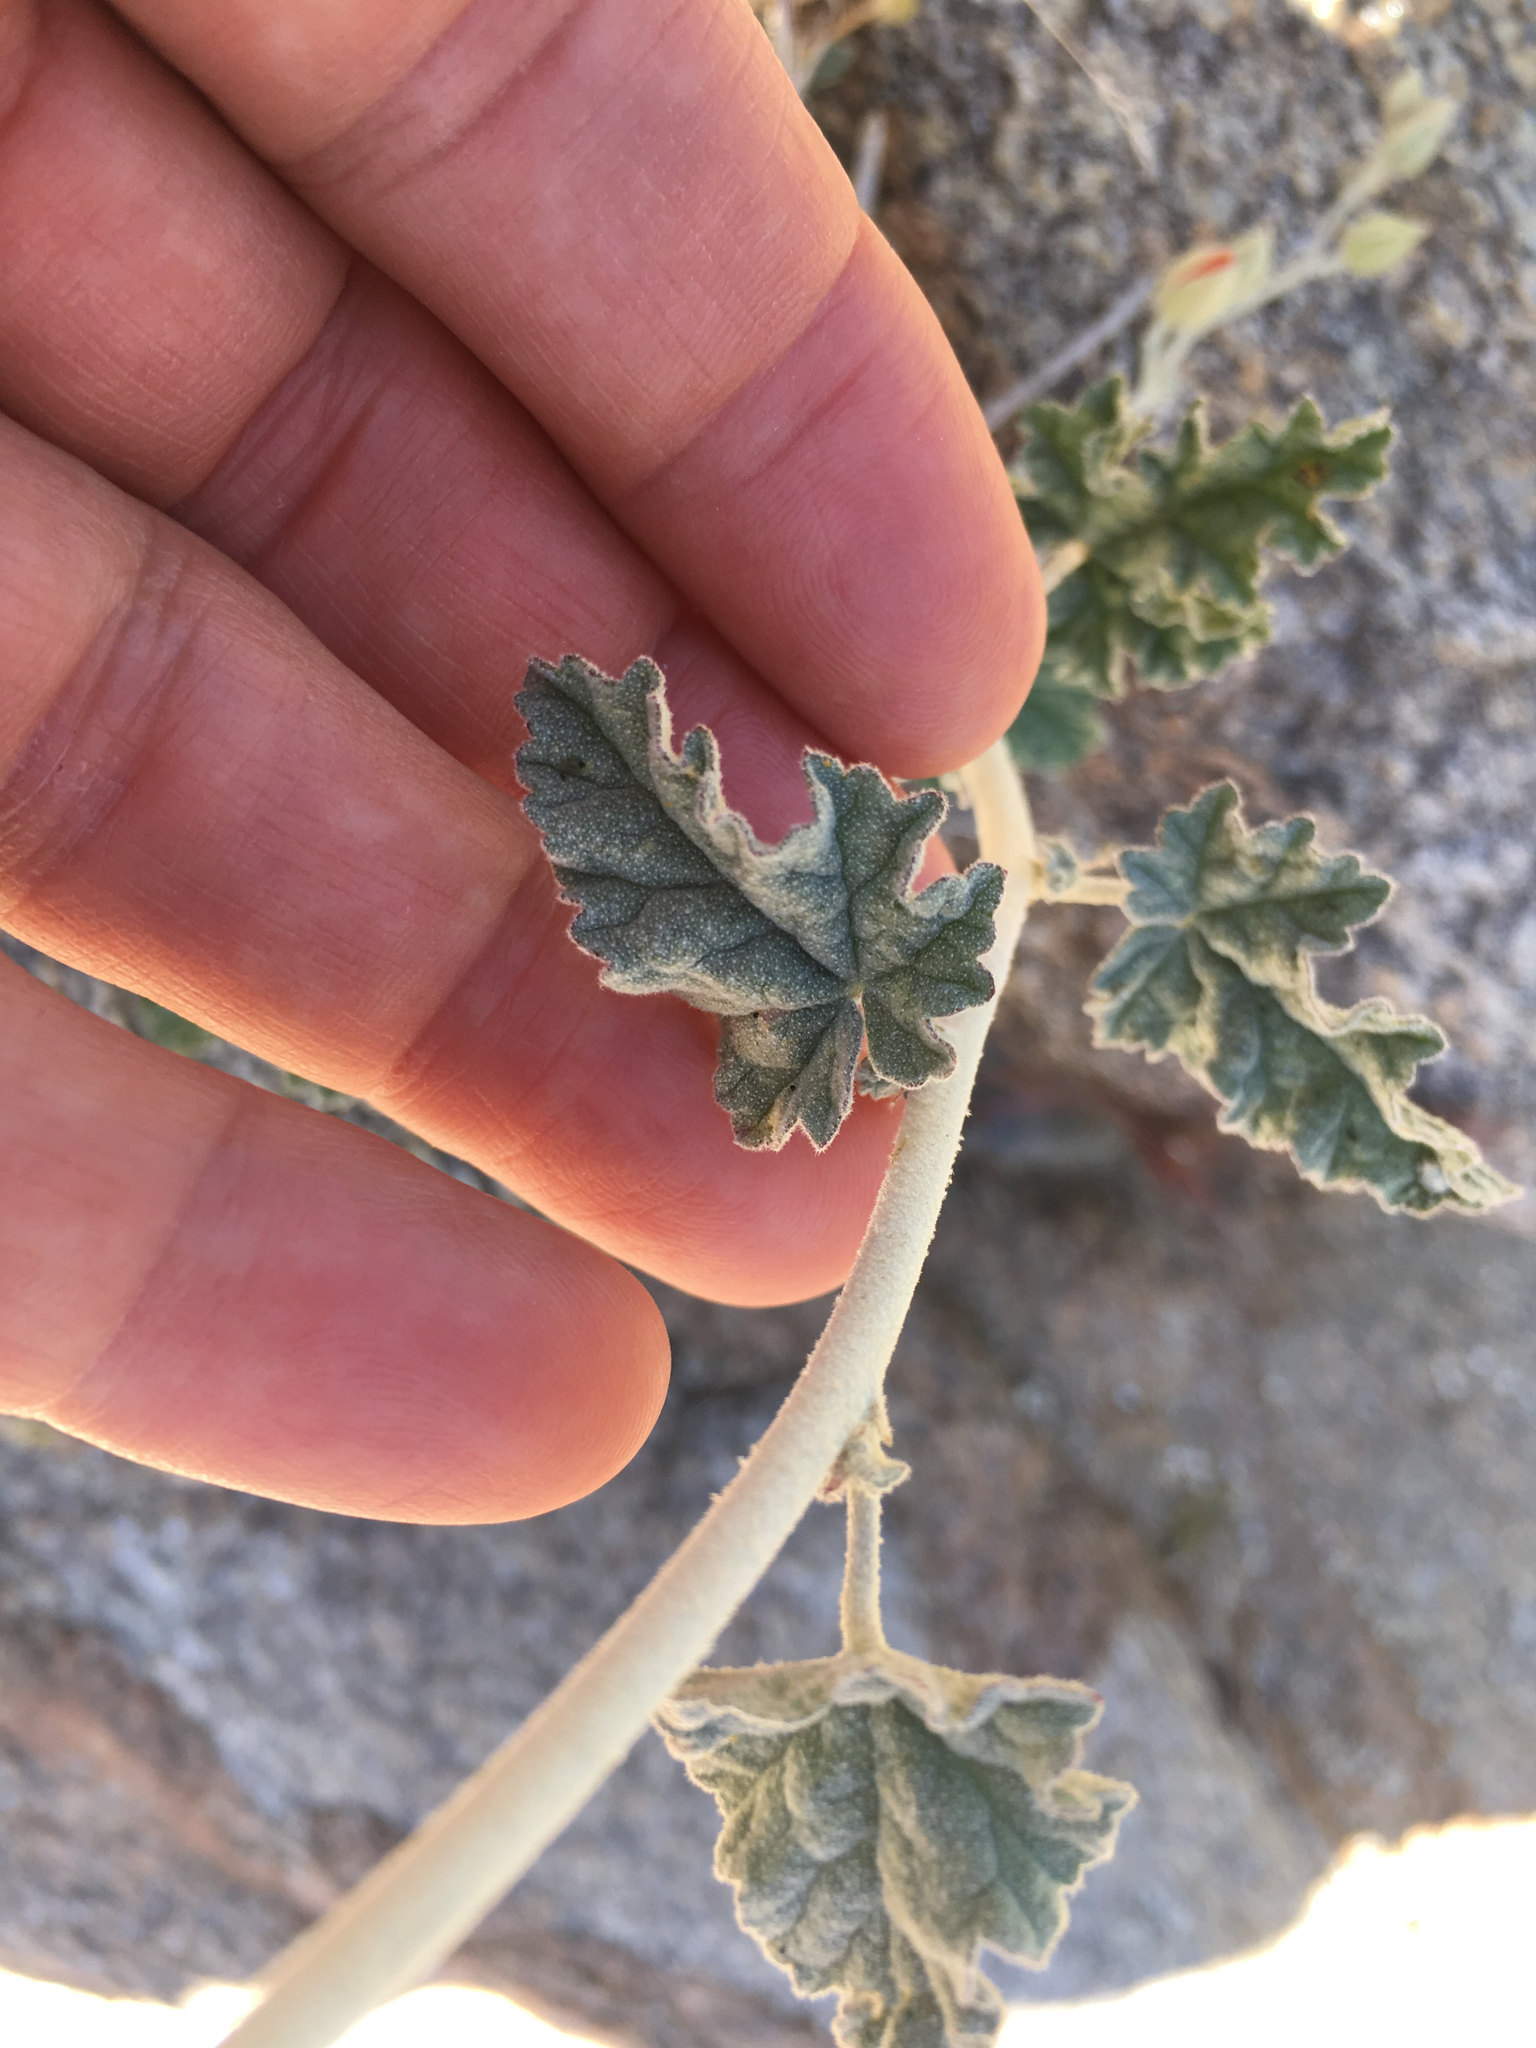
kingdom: Plantae
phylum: Tracheophyta
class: Magnoliopsida
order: Malvales
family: Malvaceae
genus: Sphaeralcea
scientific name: Sphaeralcea ambigua
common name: Apricot globe-mallow
